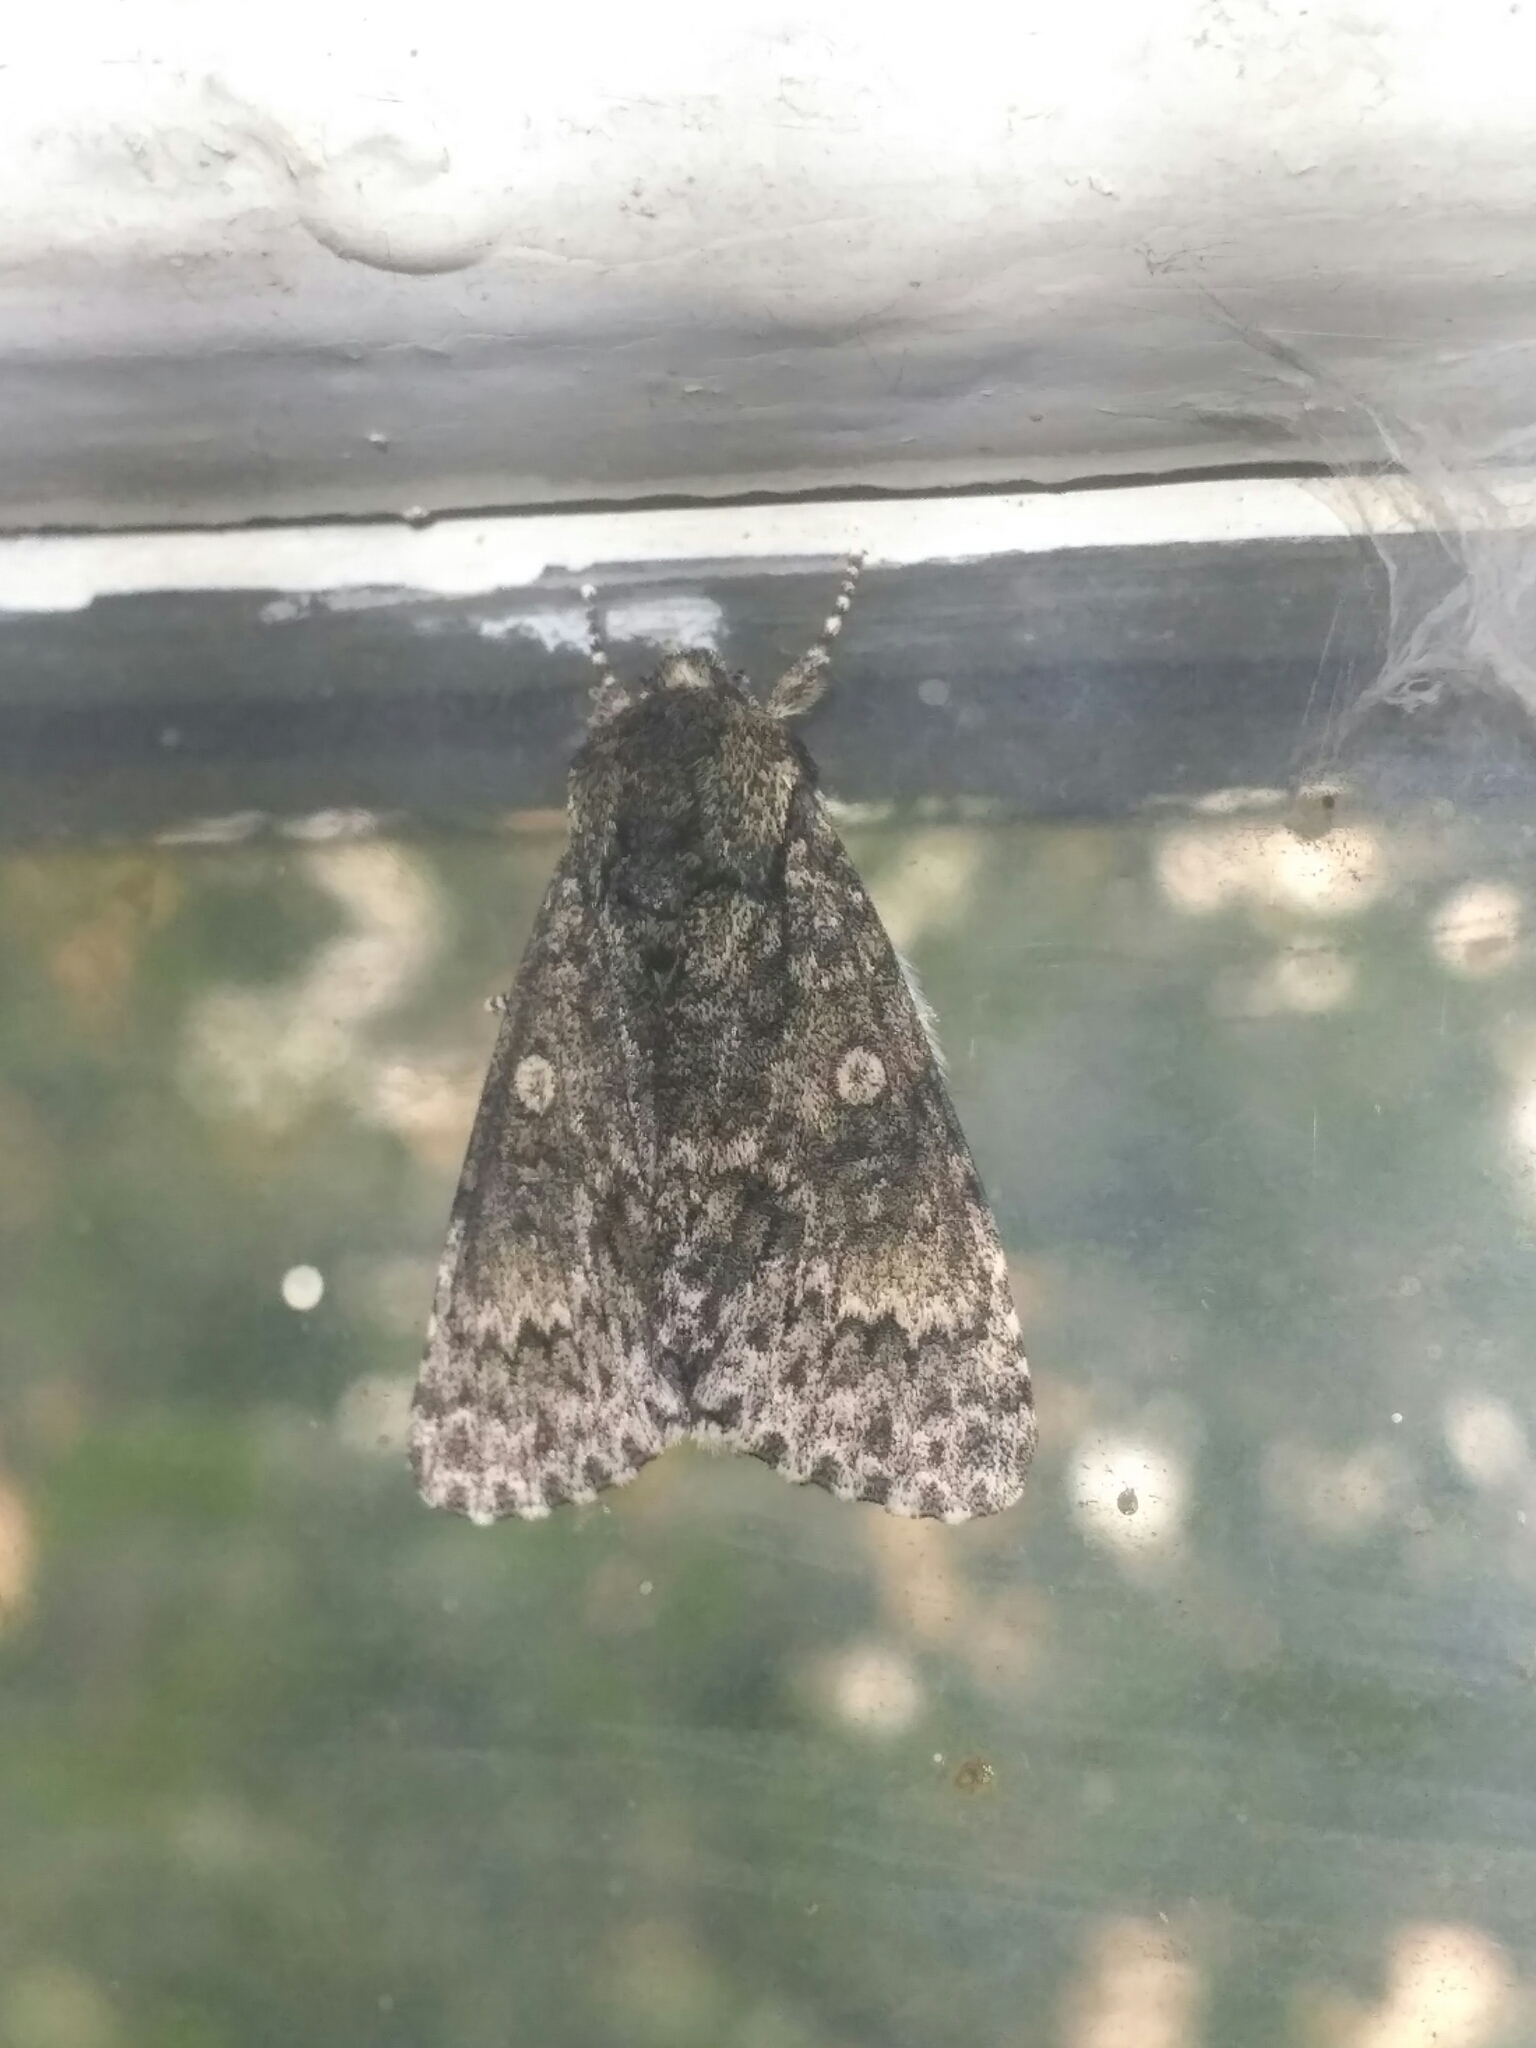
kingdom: Animalia
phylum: Arthropoda
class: Insecta
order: Lepidoptera
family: Noctuidae
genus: Acronicta
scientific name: Acronicta megacephala
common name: Poplar grey
